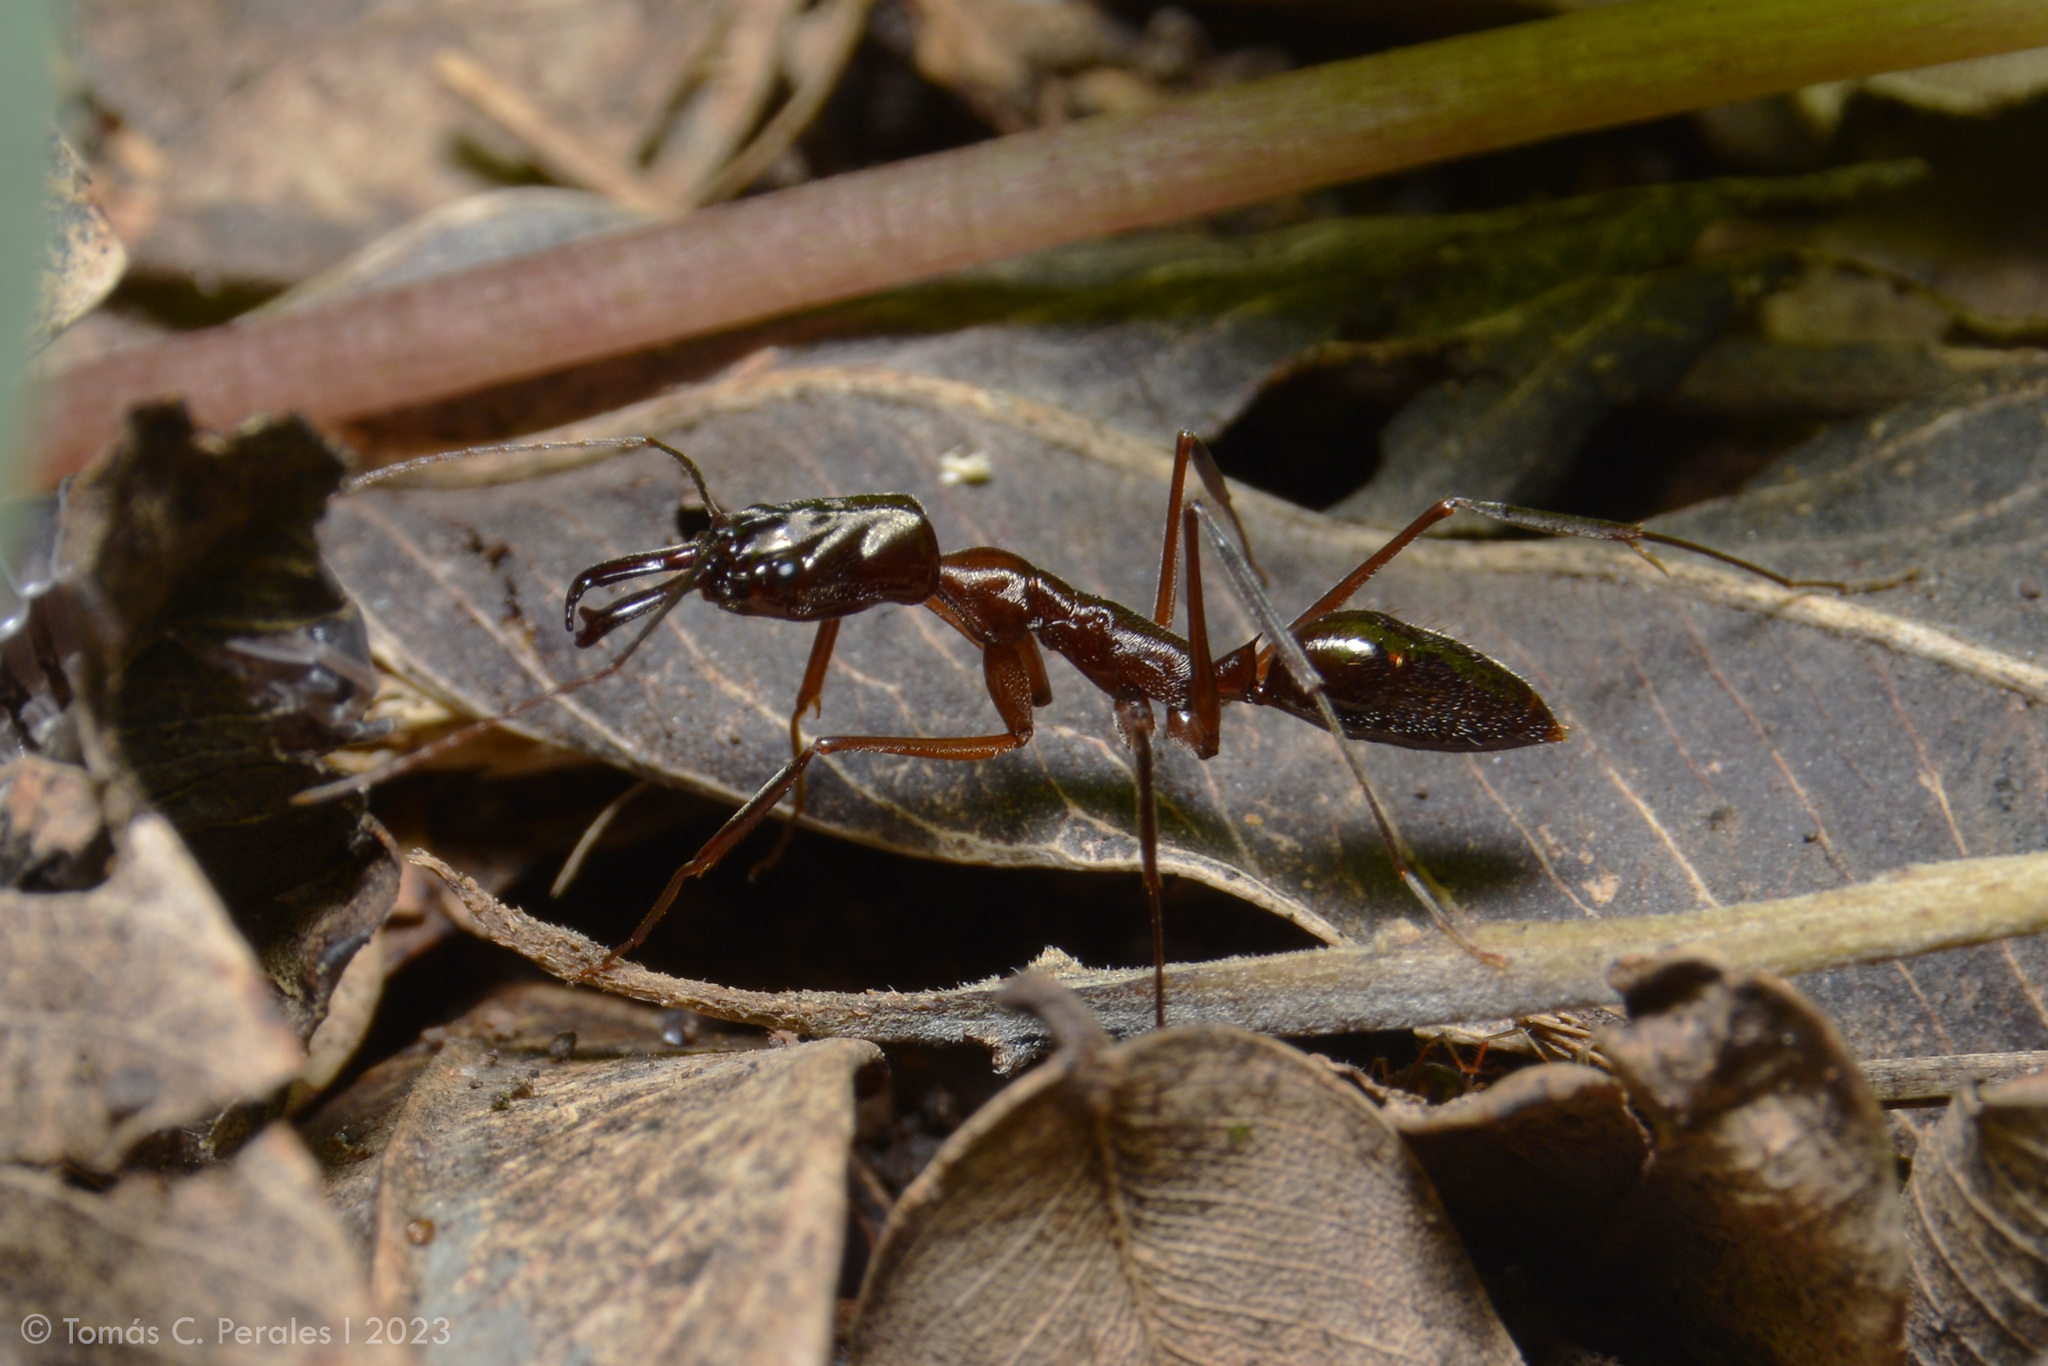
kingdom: Animalia
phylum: Arthropoda
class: Insecta
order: Hymenoptera
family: Formicidae
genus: Odontomachus
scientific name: Odontomachus chelifer
